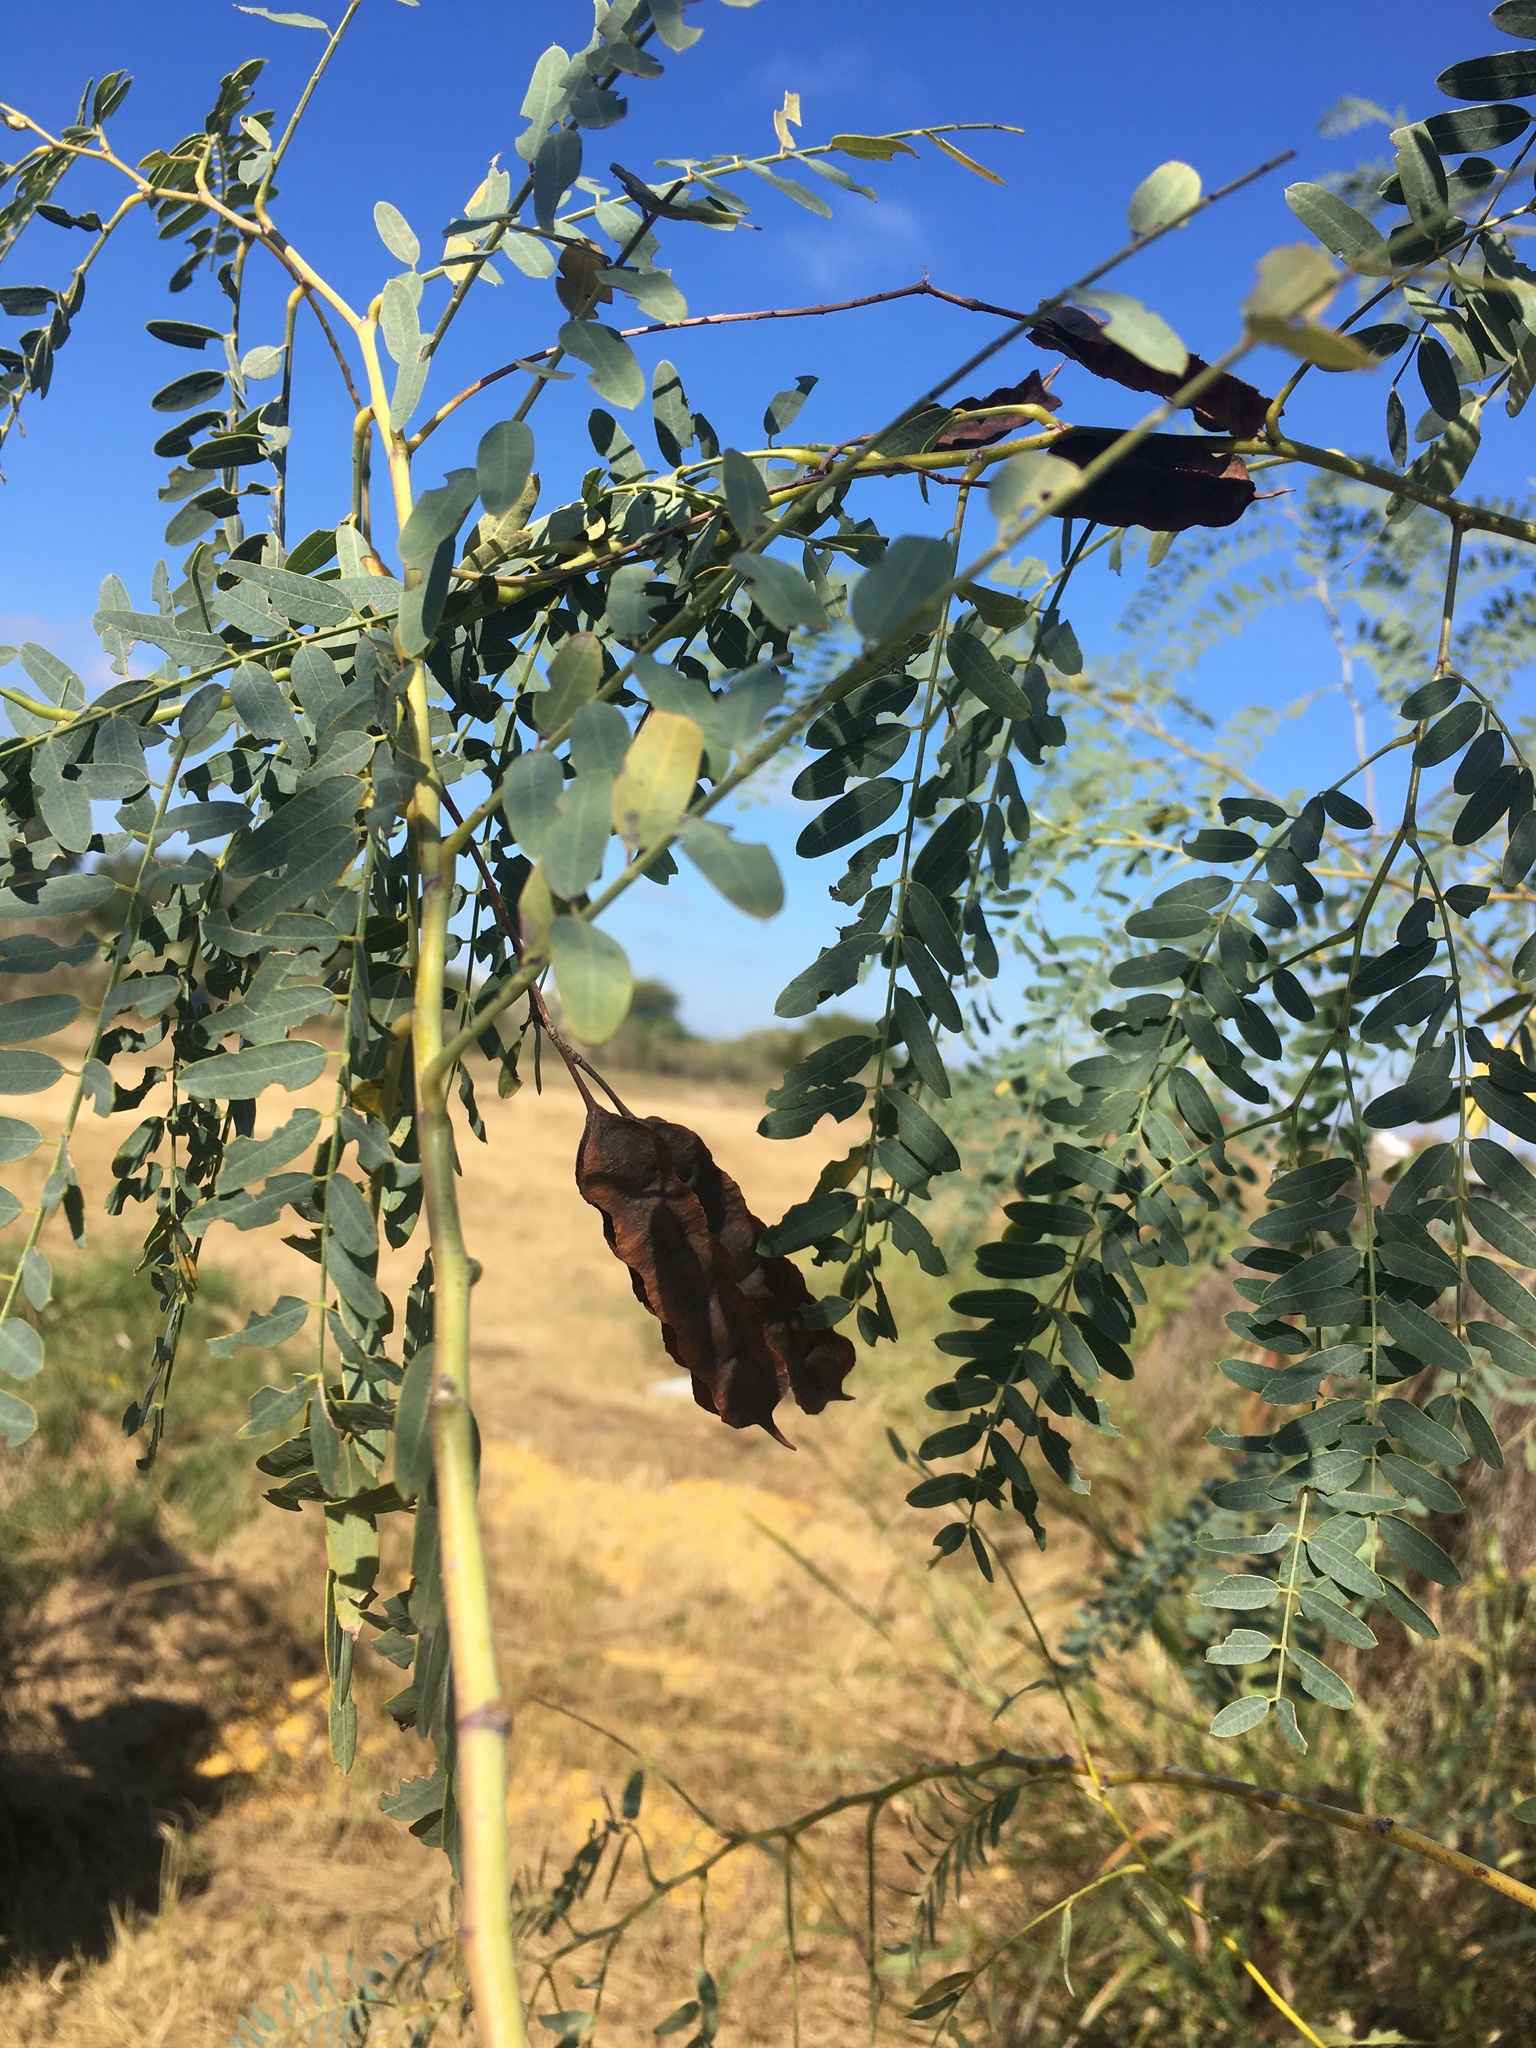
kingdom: Plantae
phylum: Tracheophyta
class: Magnoliopsida
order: Fabales
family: Fabaceae
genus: Sesbania
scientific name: Sesbania drummondii
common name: Poison-bean
